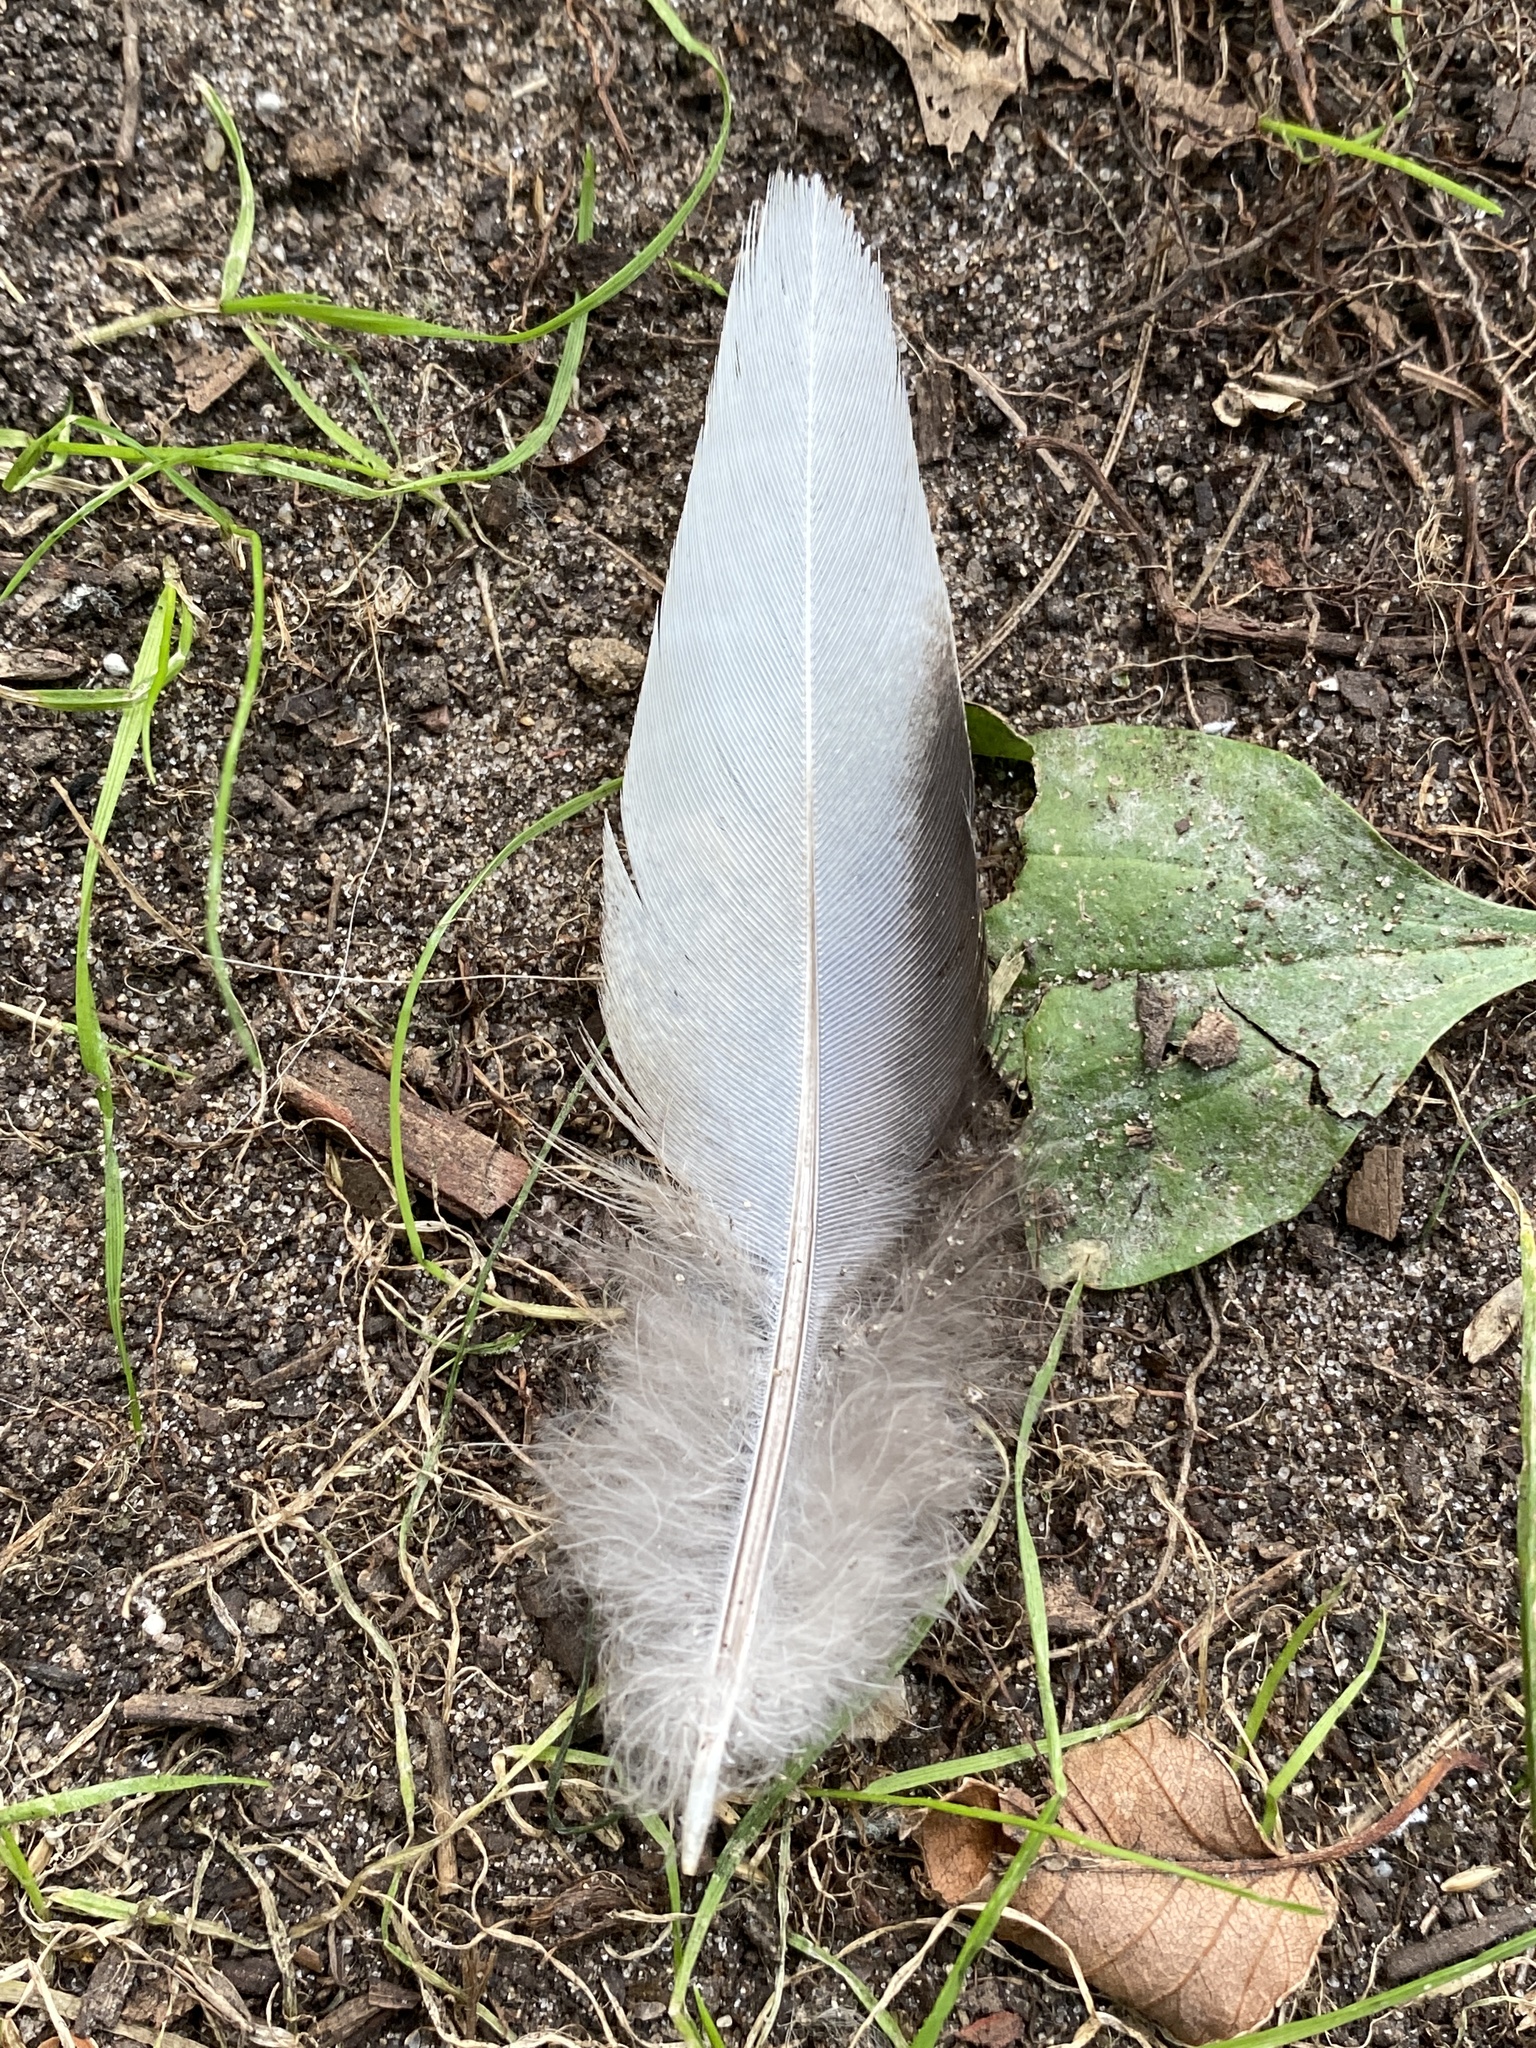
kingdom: Animalia
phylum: Chordata
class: Aves
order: Columbiformes
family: Columbidae
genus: Zenaida
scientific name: Zenaida macroura
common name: Mourning dove
